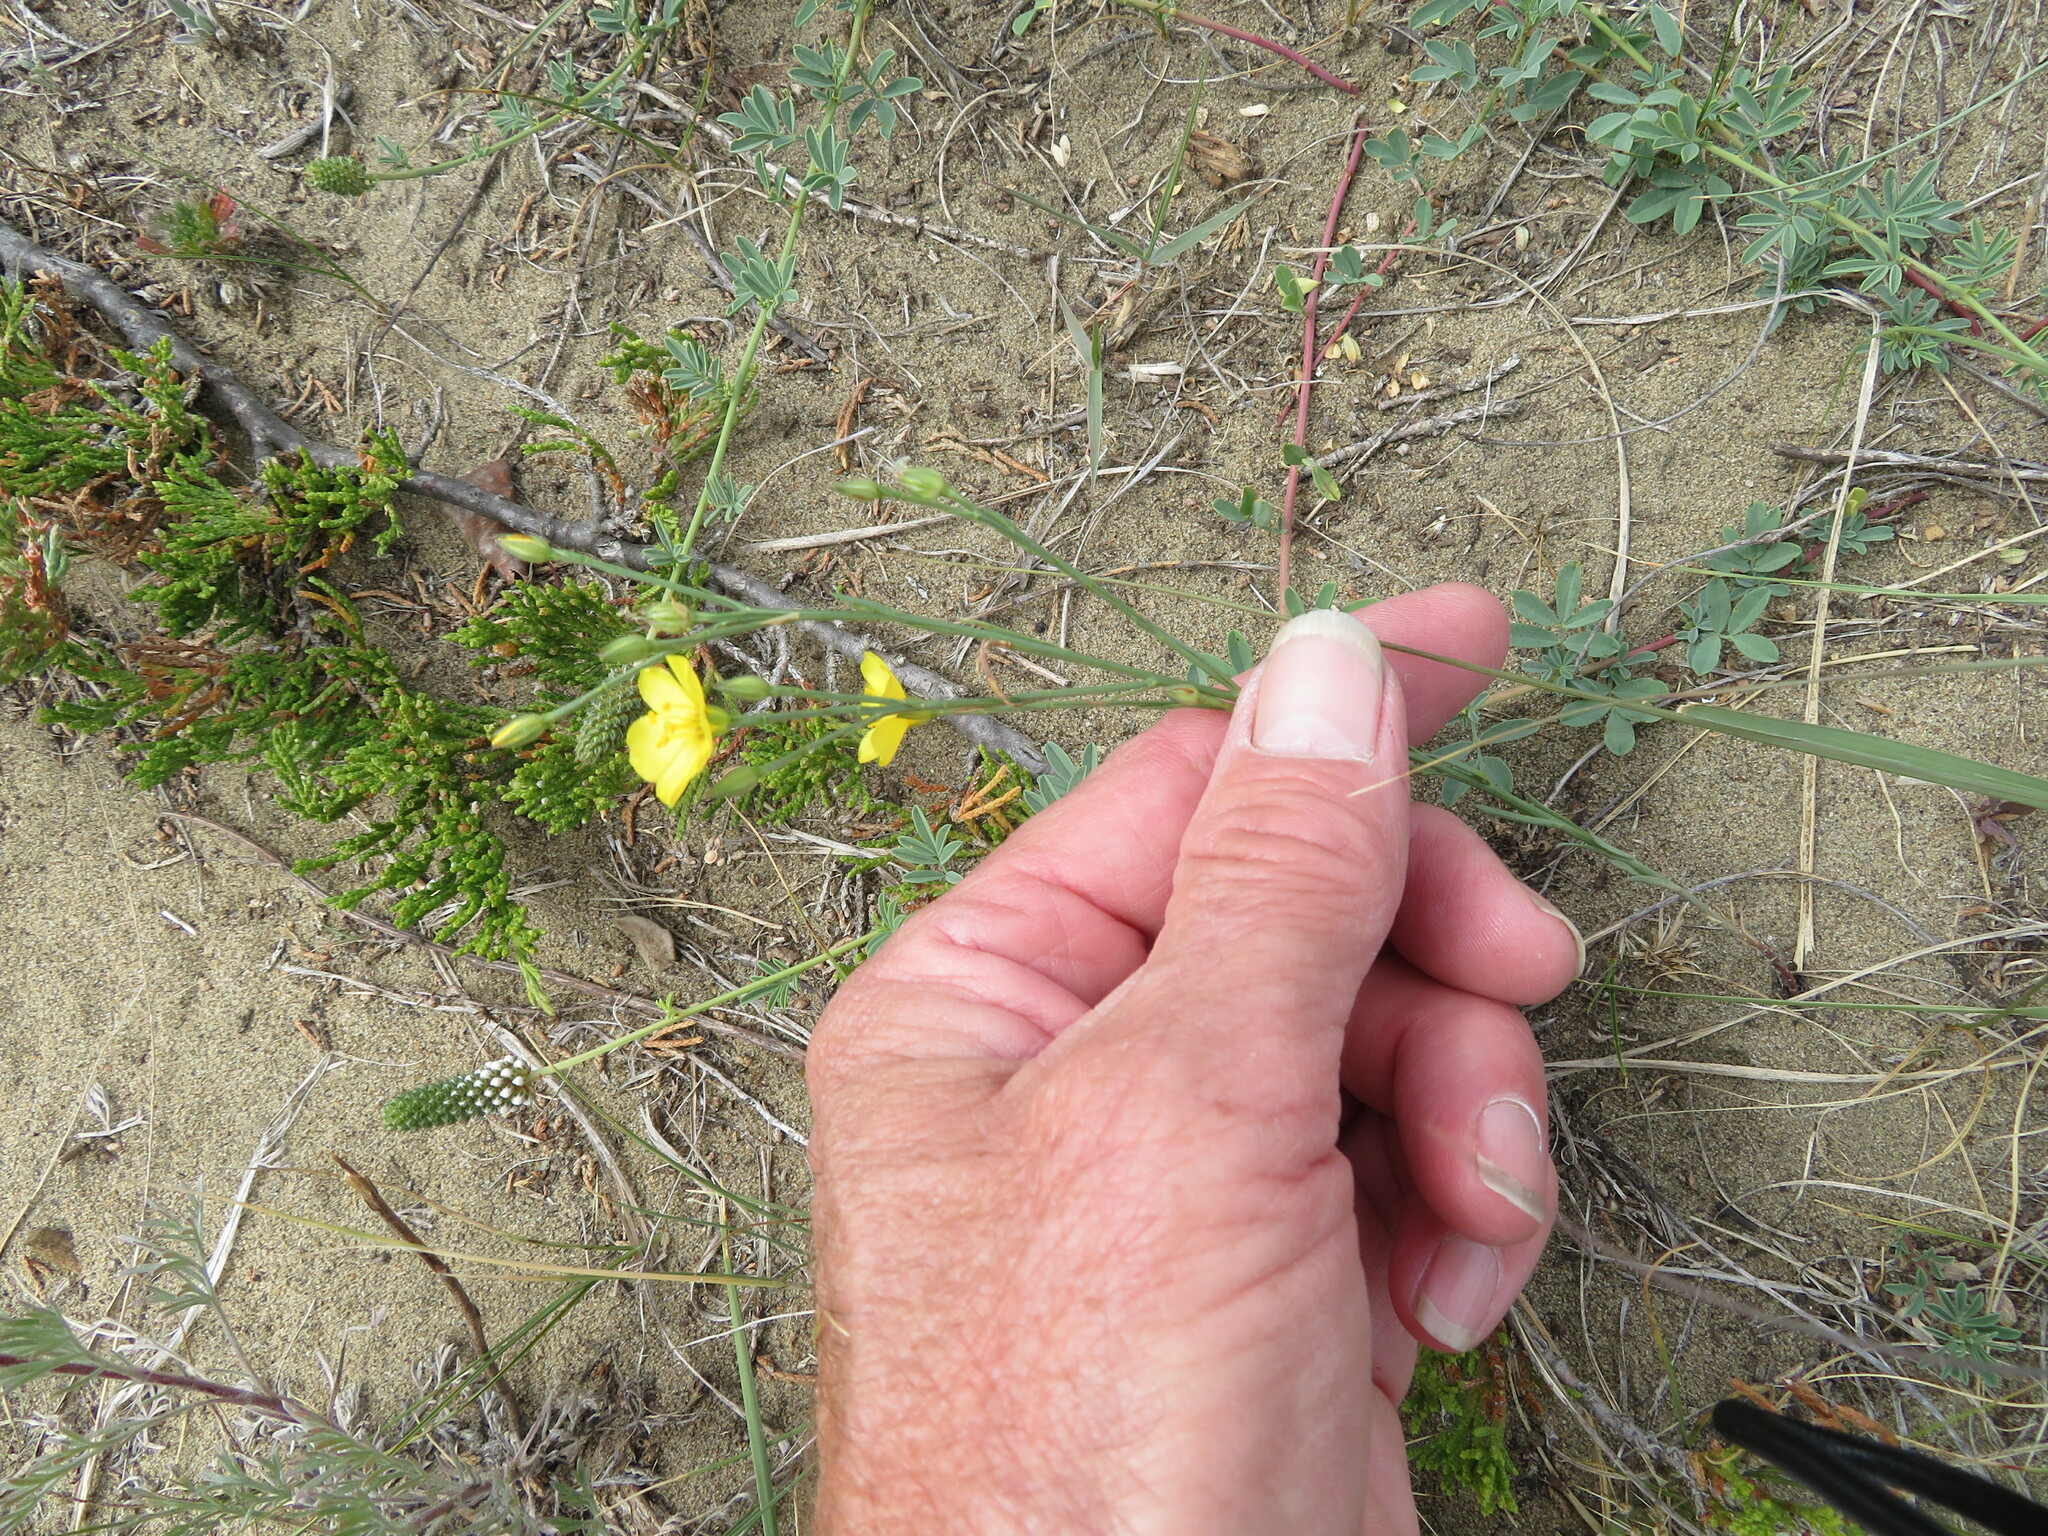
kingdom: Plantae
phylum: Tracheophyta
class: Magnoliopsida
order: Malpighiales
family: Linaceae
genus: Linum
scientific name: Linum rigidum
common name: Stiff-stem flax
